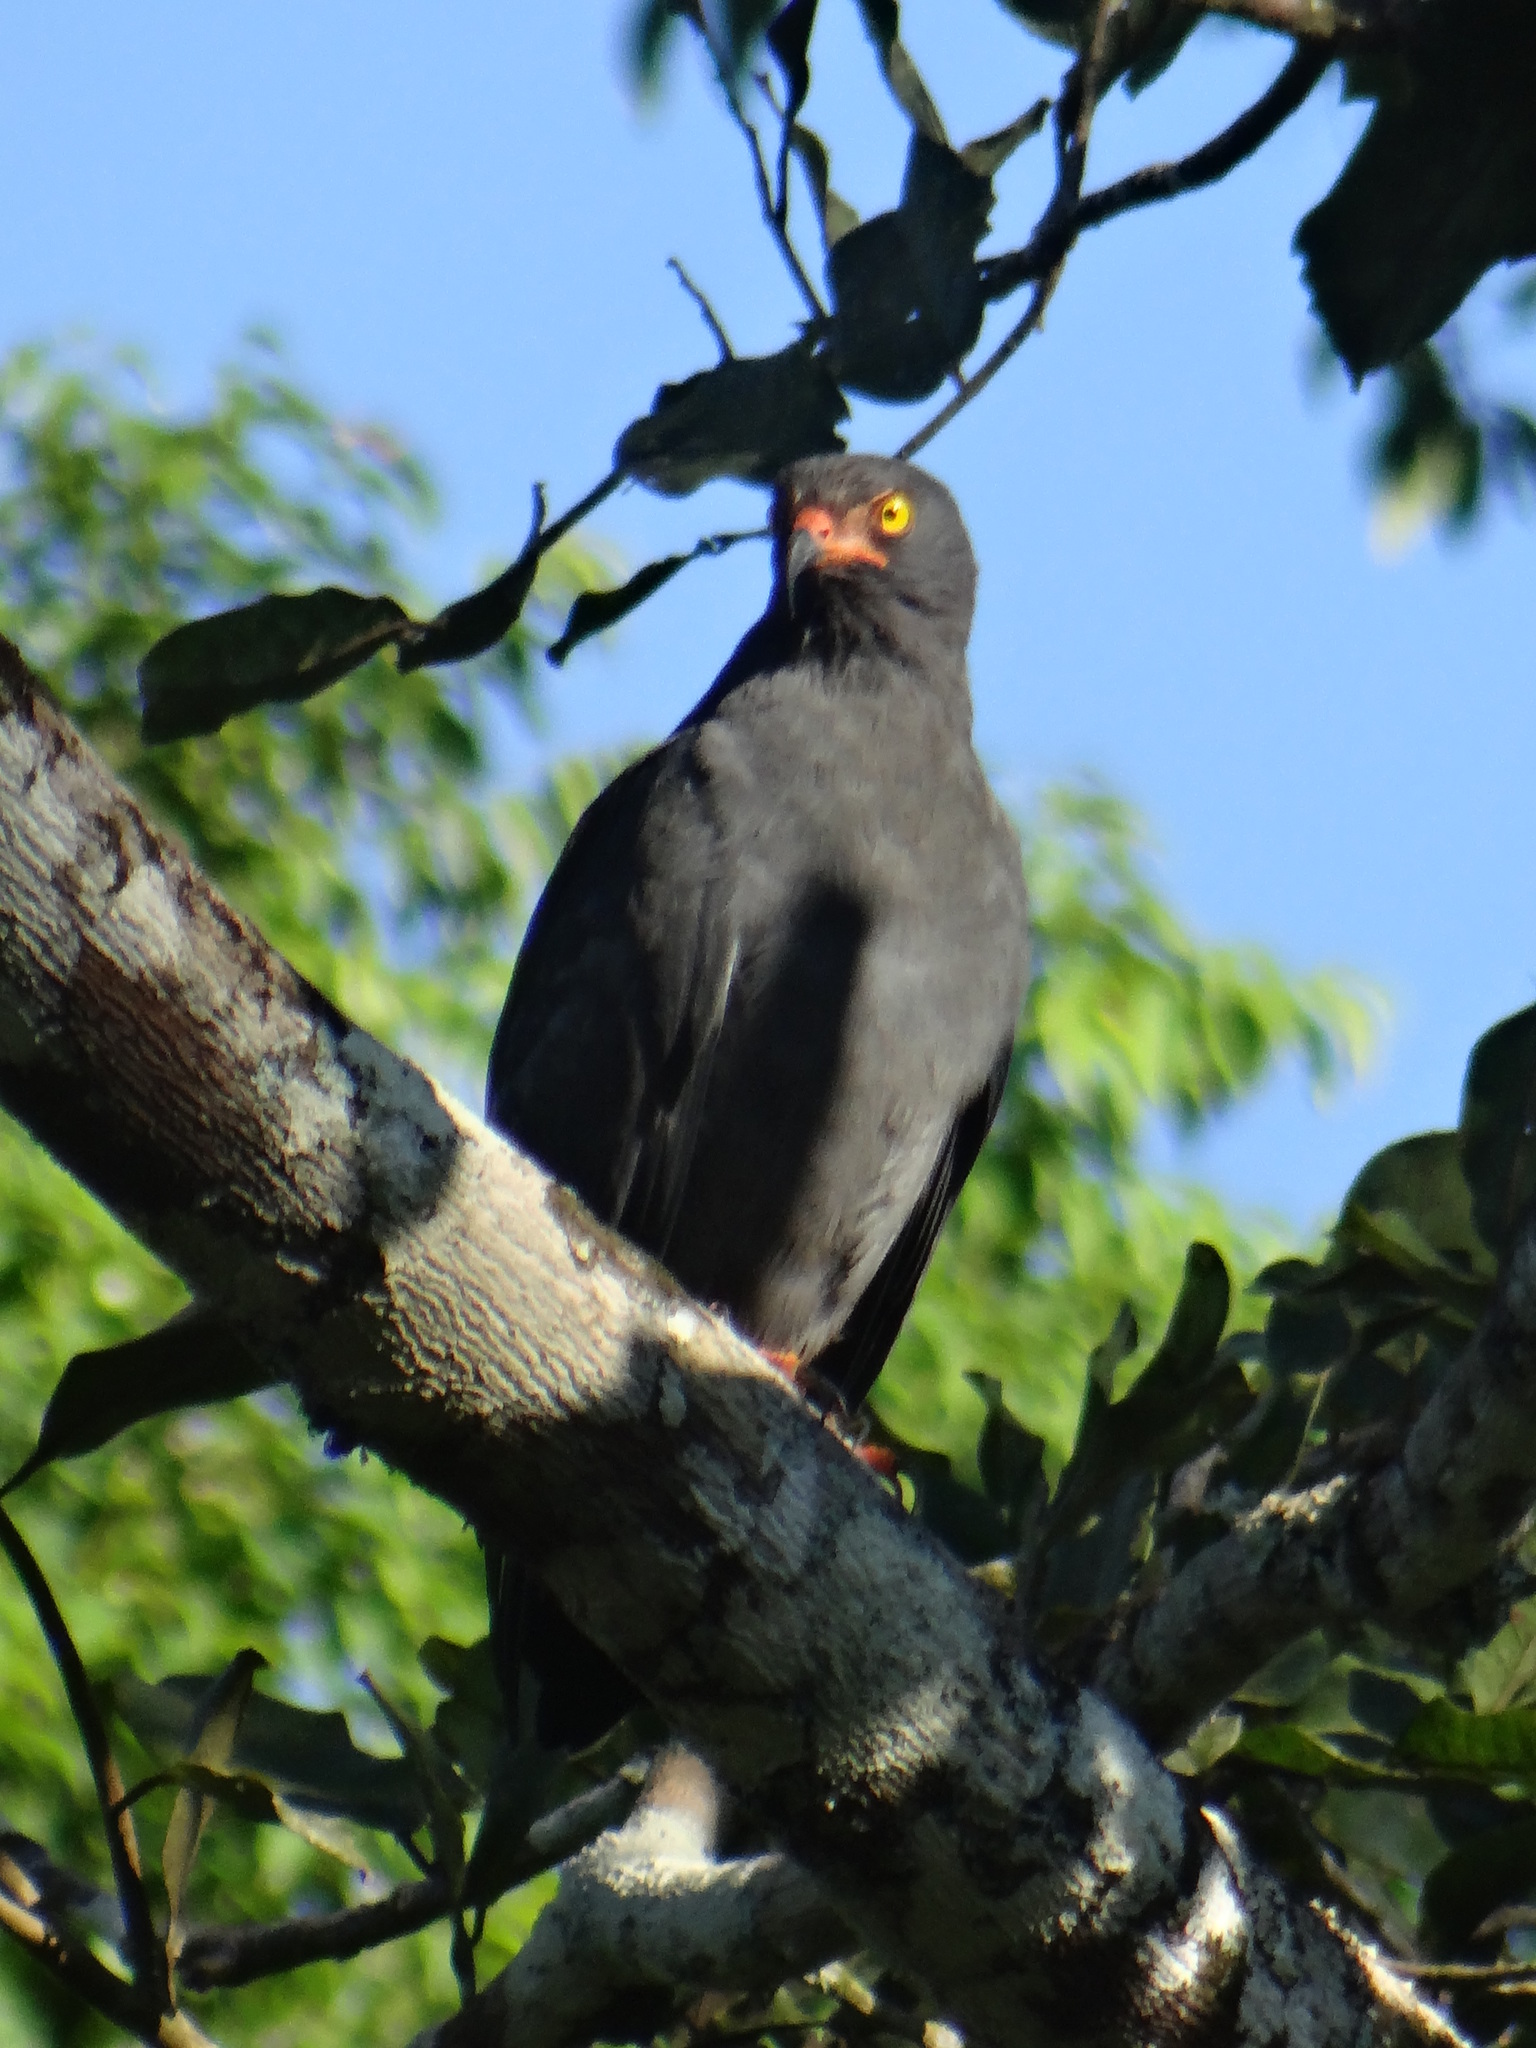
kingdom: Animalia
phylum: Chordata
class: Aves
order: Accipitriformes
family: Accipitridae
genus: Helicolestes
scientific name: Helicolestes hamatus
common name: Slender-billed kite
